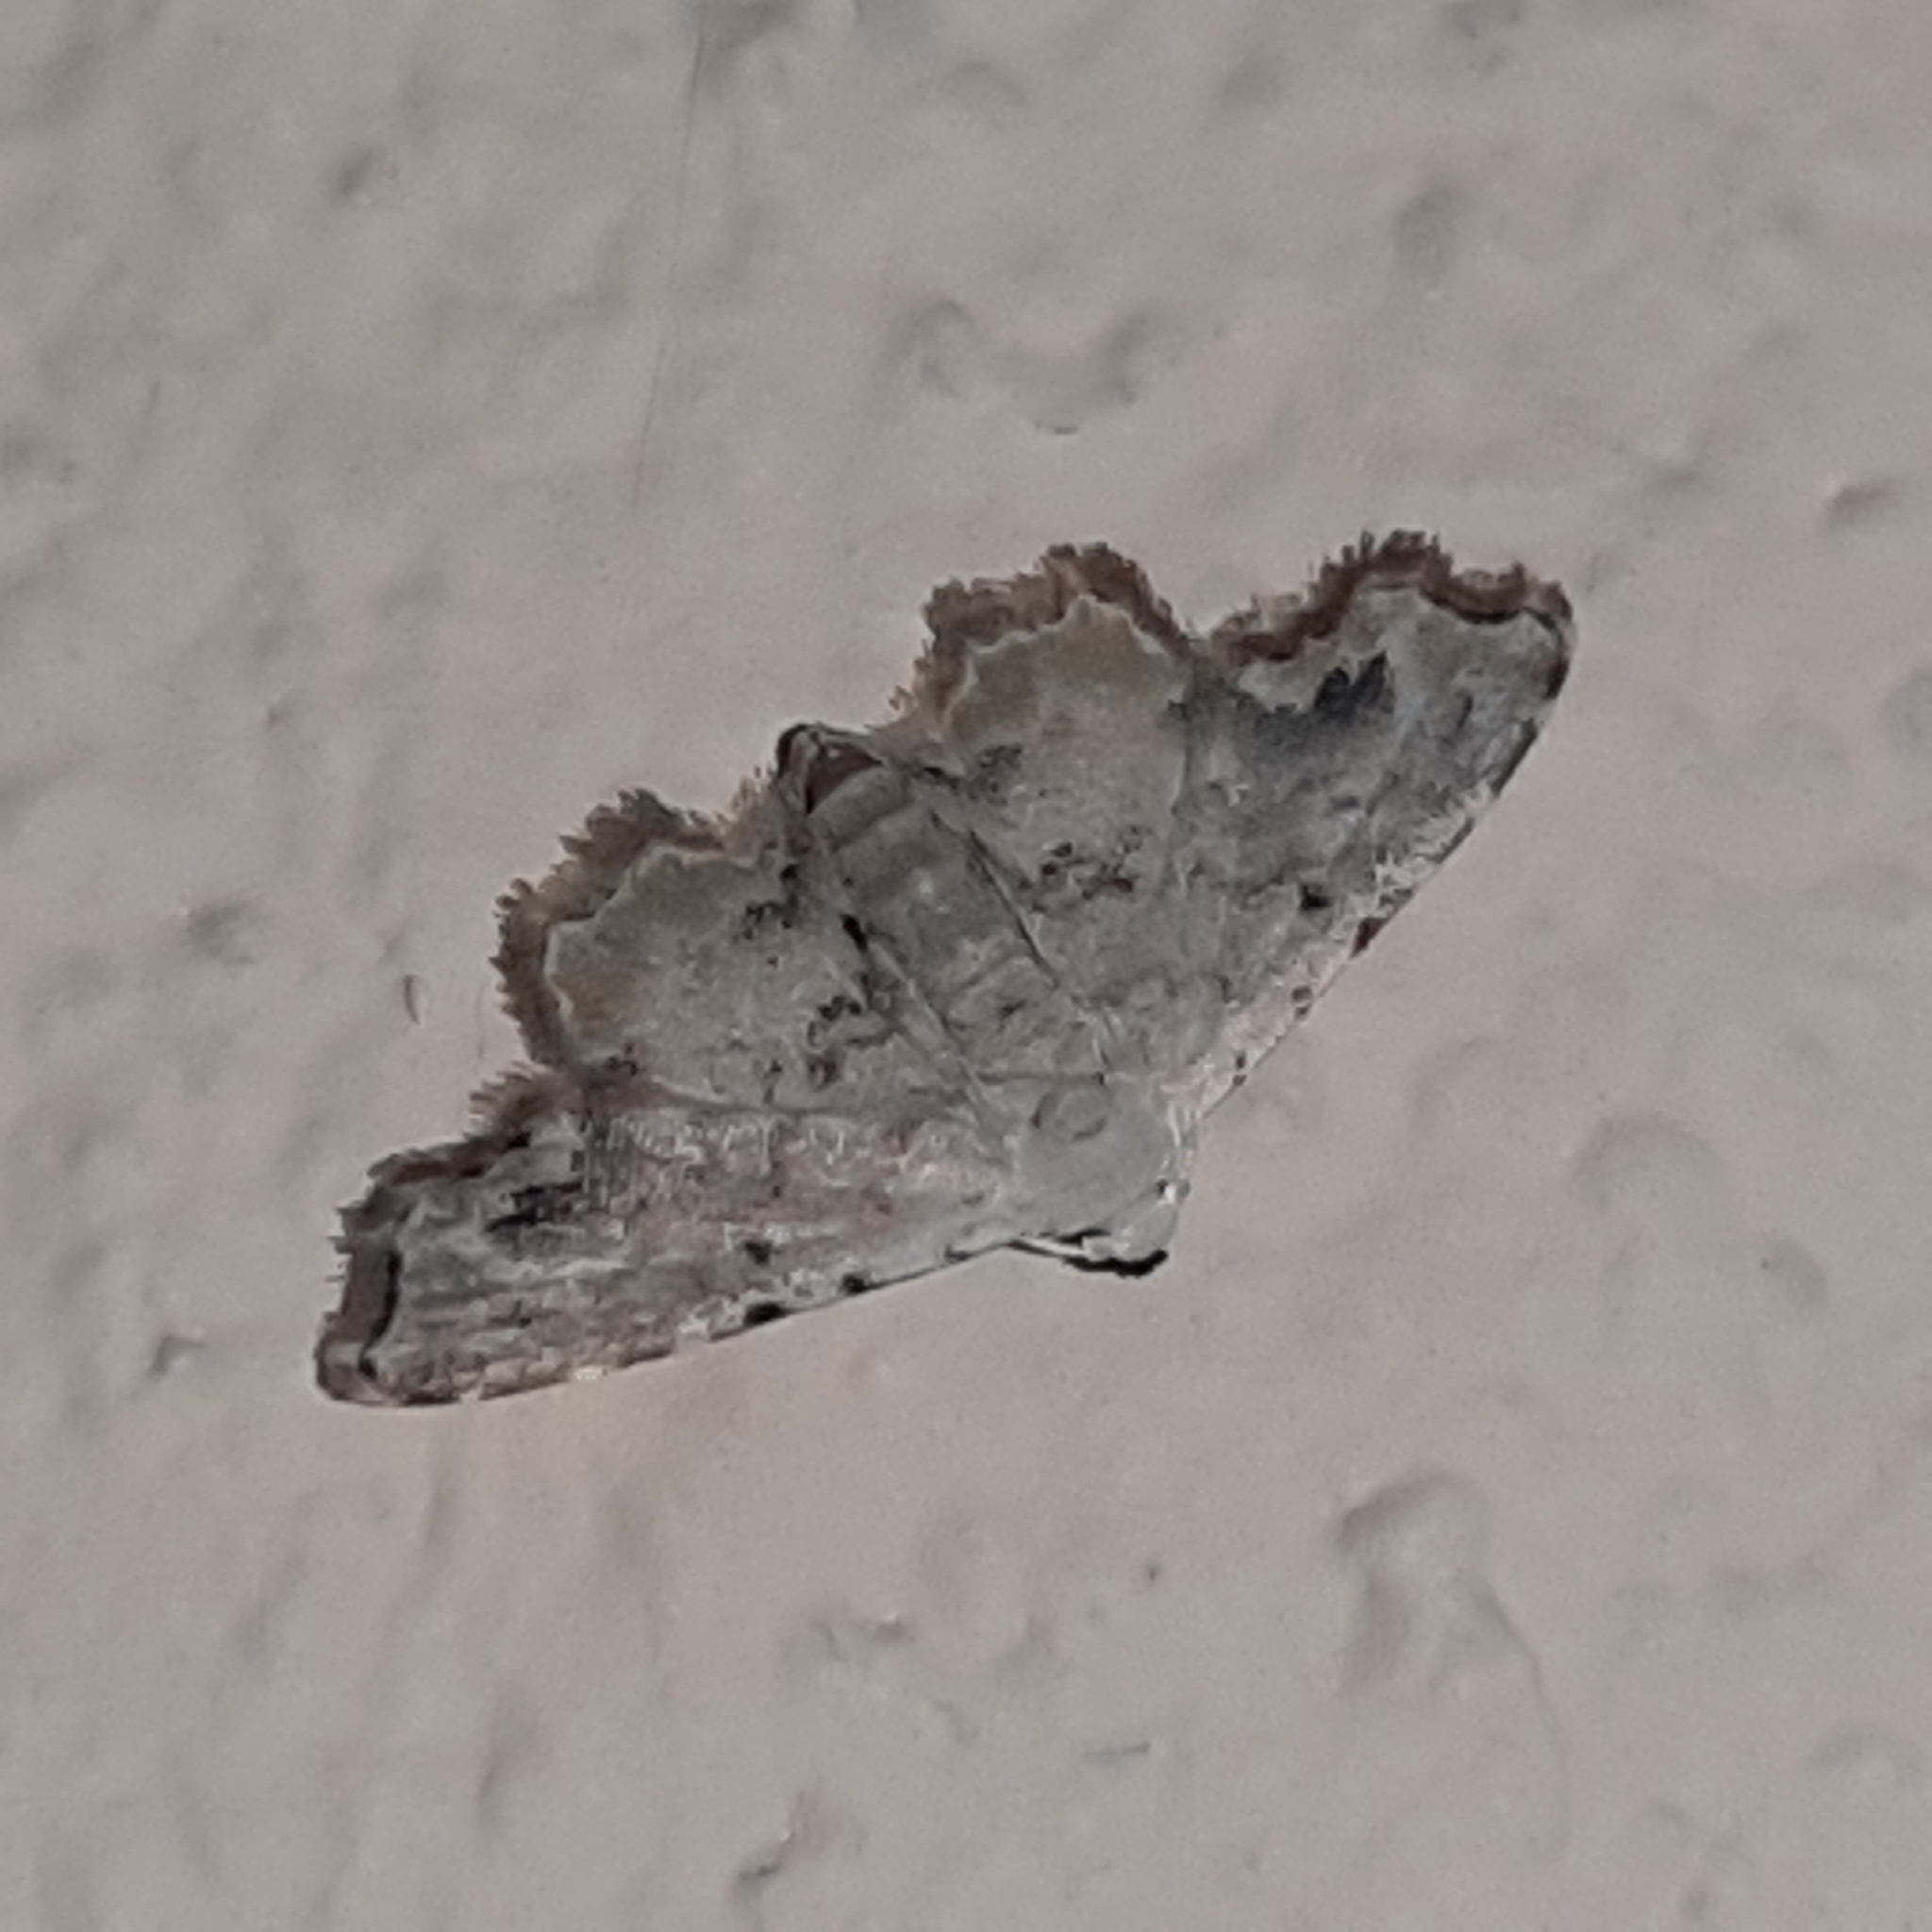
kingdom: Animalia
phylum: Arthropoda
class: Insecta
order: Lepidoptera
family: Erebidae
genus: Sigela
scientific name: Sigela vilhelmina
